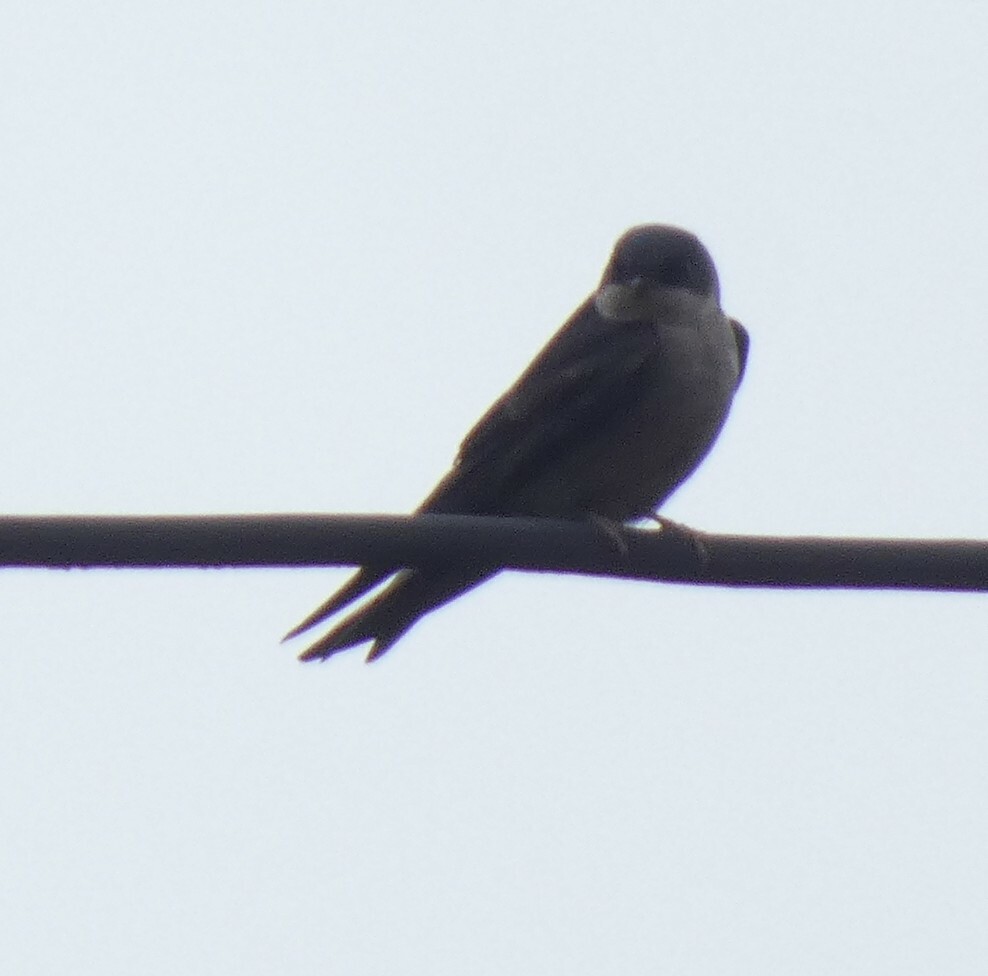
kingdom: Animalia
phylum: Chordata
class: Aves
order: Passeriformes
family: Hirundinidae
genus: Notiochelidon
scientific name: Notiochelidon murina
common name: Brown-bellied swallow
